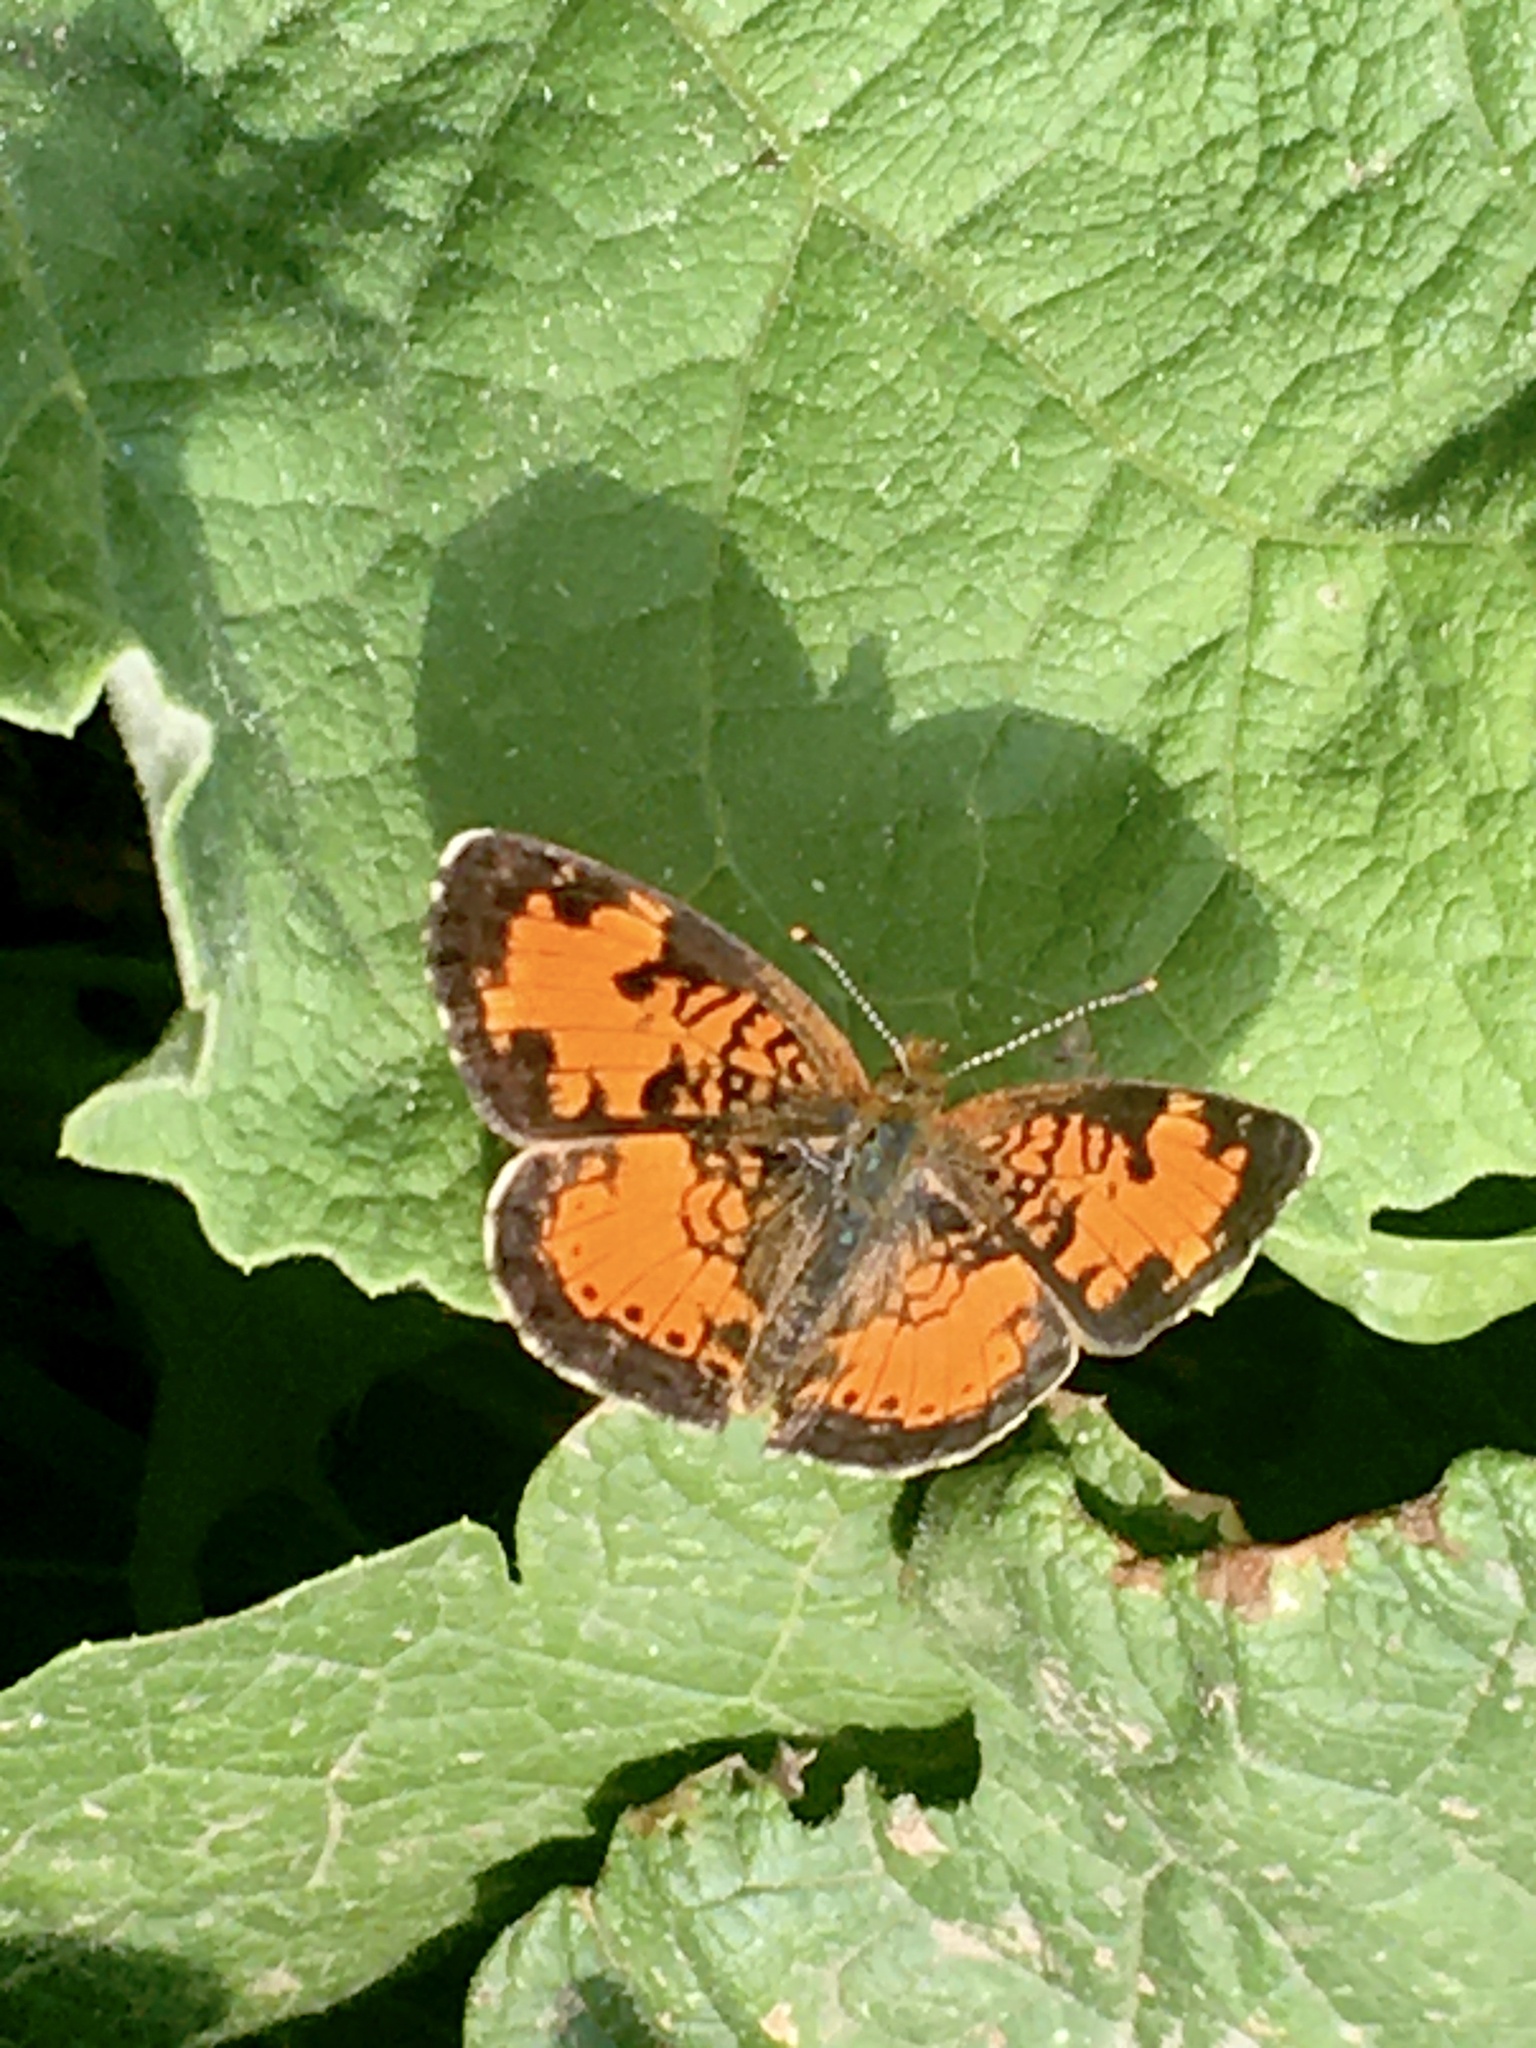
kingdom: Animalia
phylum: Arthropoda
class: Insecta
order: Lepidoptera
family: Nymphalidae
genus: Phyciodes
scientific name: Phyciodes tharos
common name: Pearl crescent
